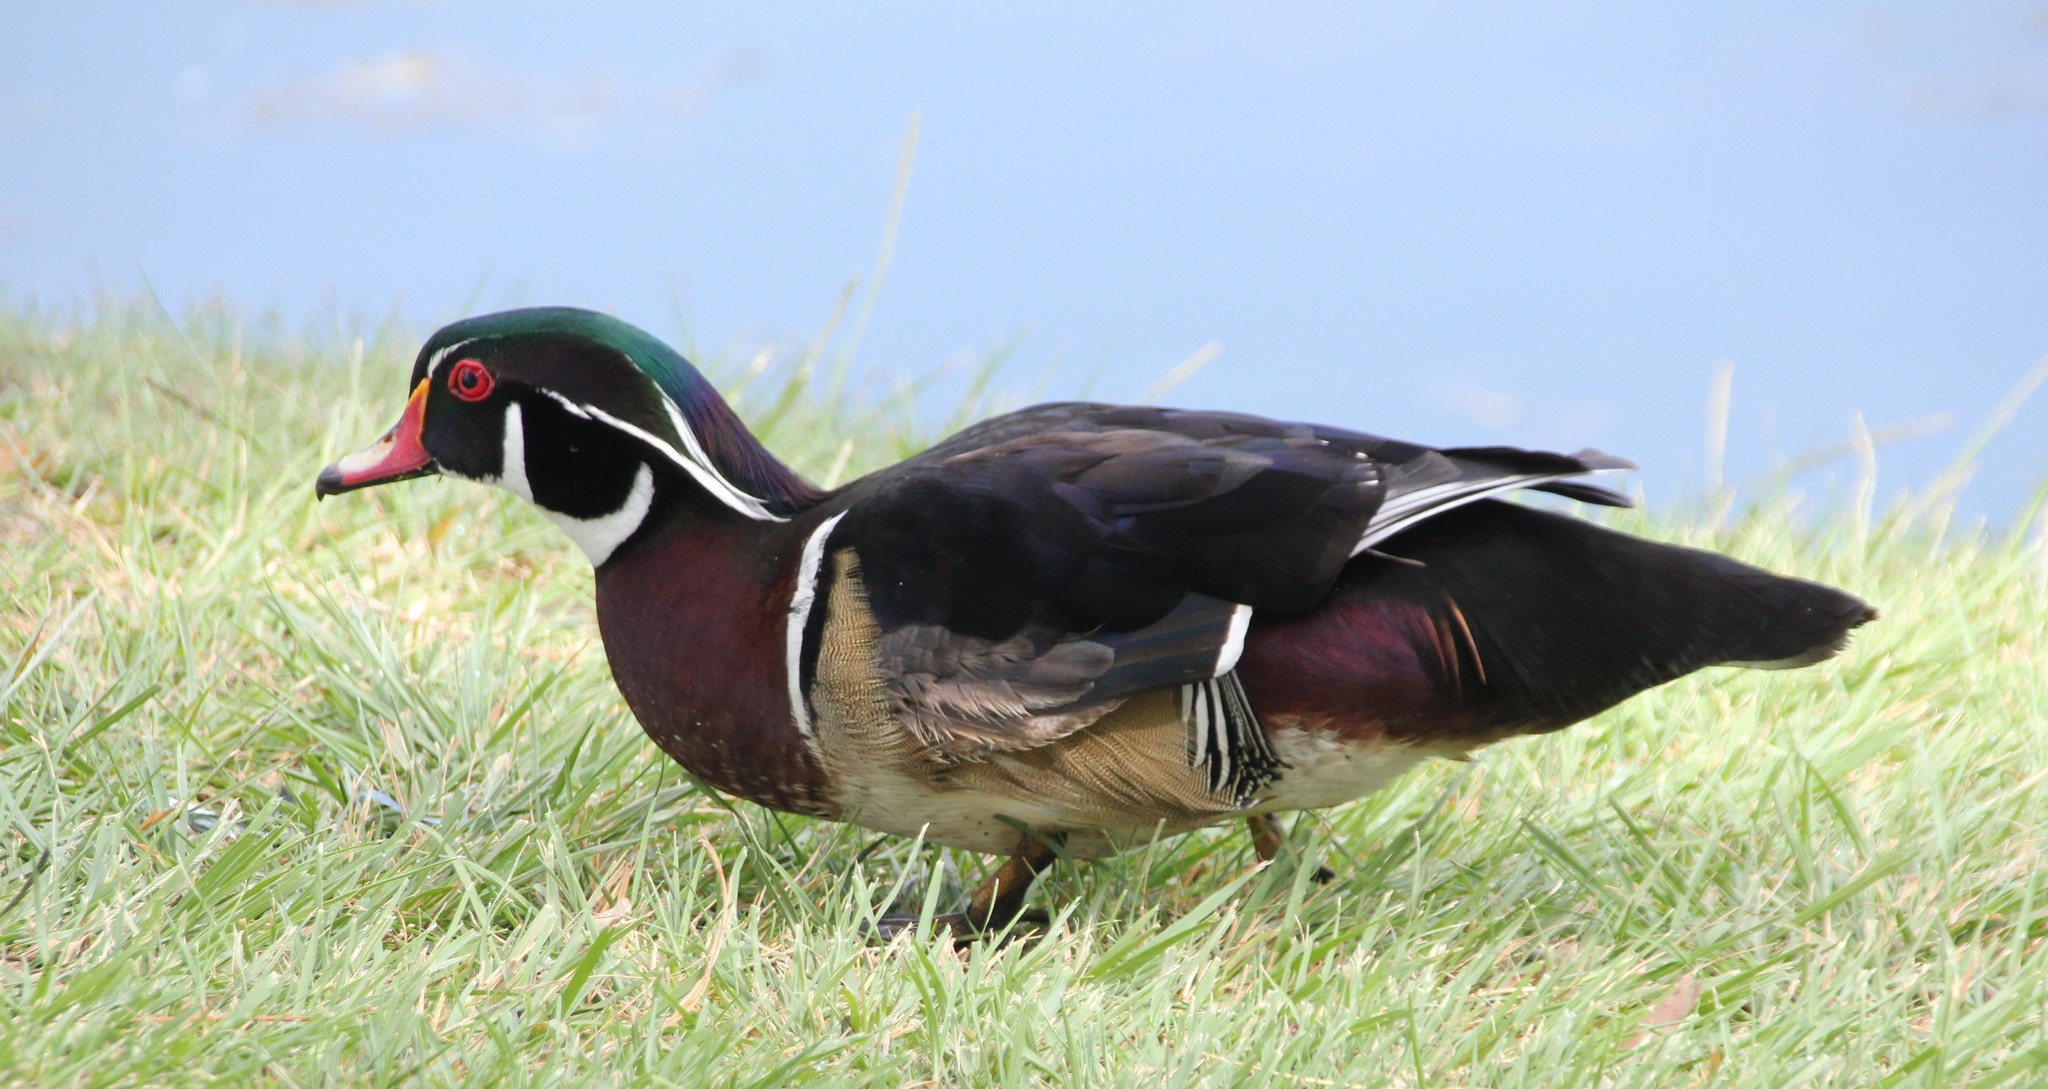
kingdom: Animalia
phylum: Chordata
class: Aves
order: Anseriformes
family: Anatidae
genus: Aix
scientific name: Aix sponsa
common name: Wood duck
